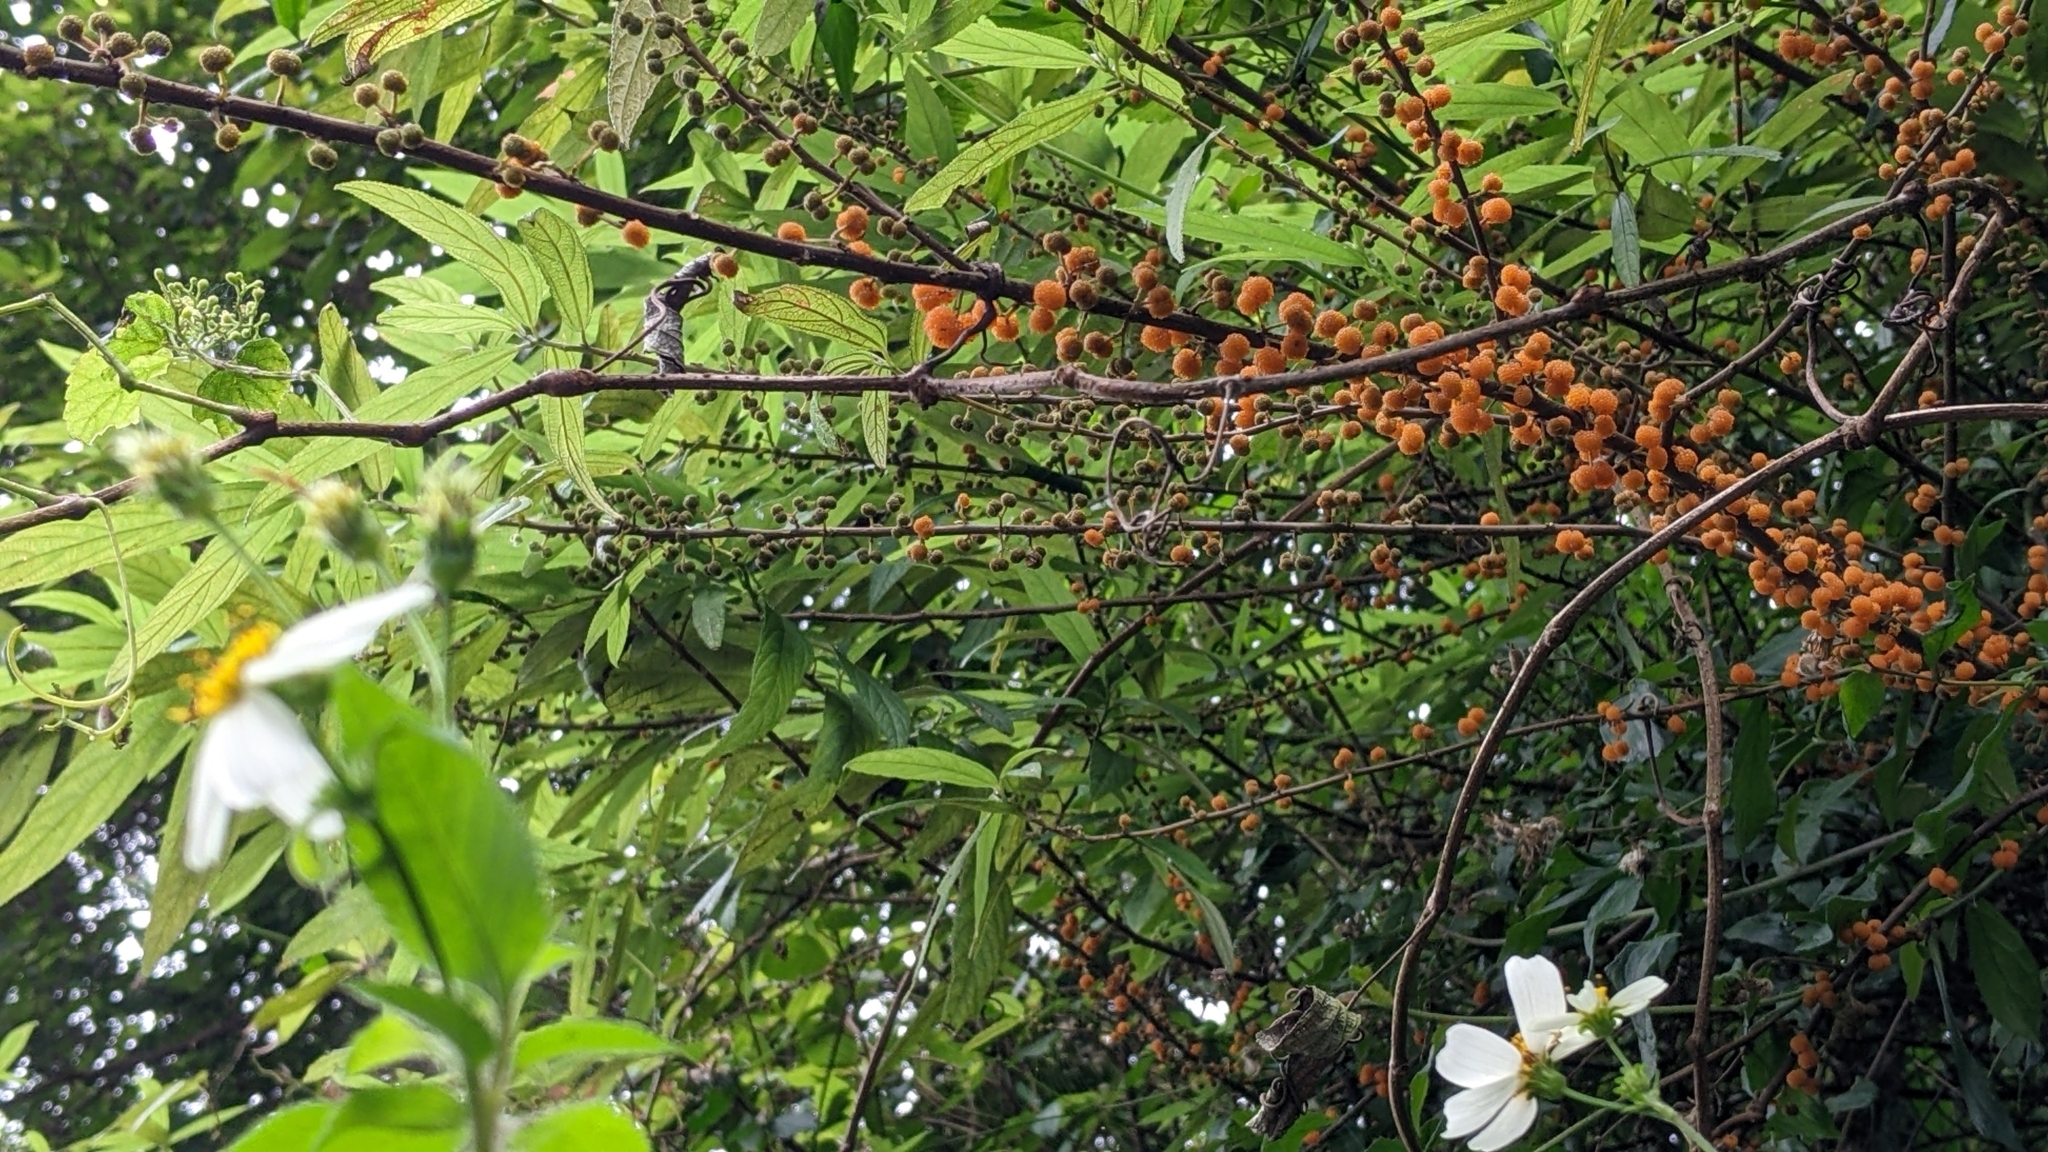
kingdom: Plantae
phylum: Tracheophyta
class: Magnoliopsida
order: Rosales
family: Urticaceae
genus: Debregeasia
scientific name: Debregeasia orientalis
